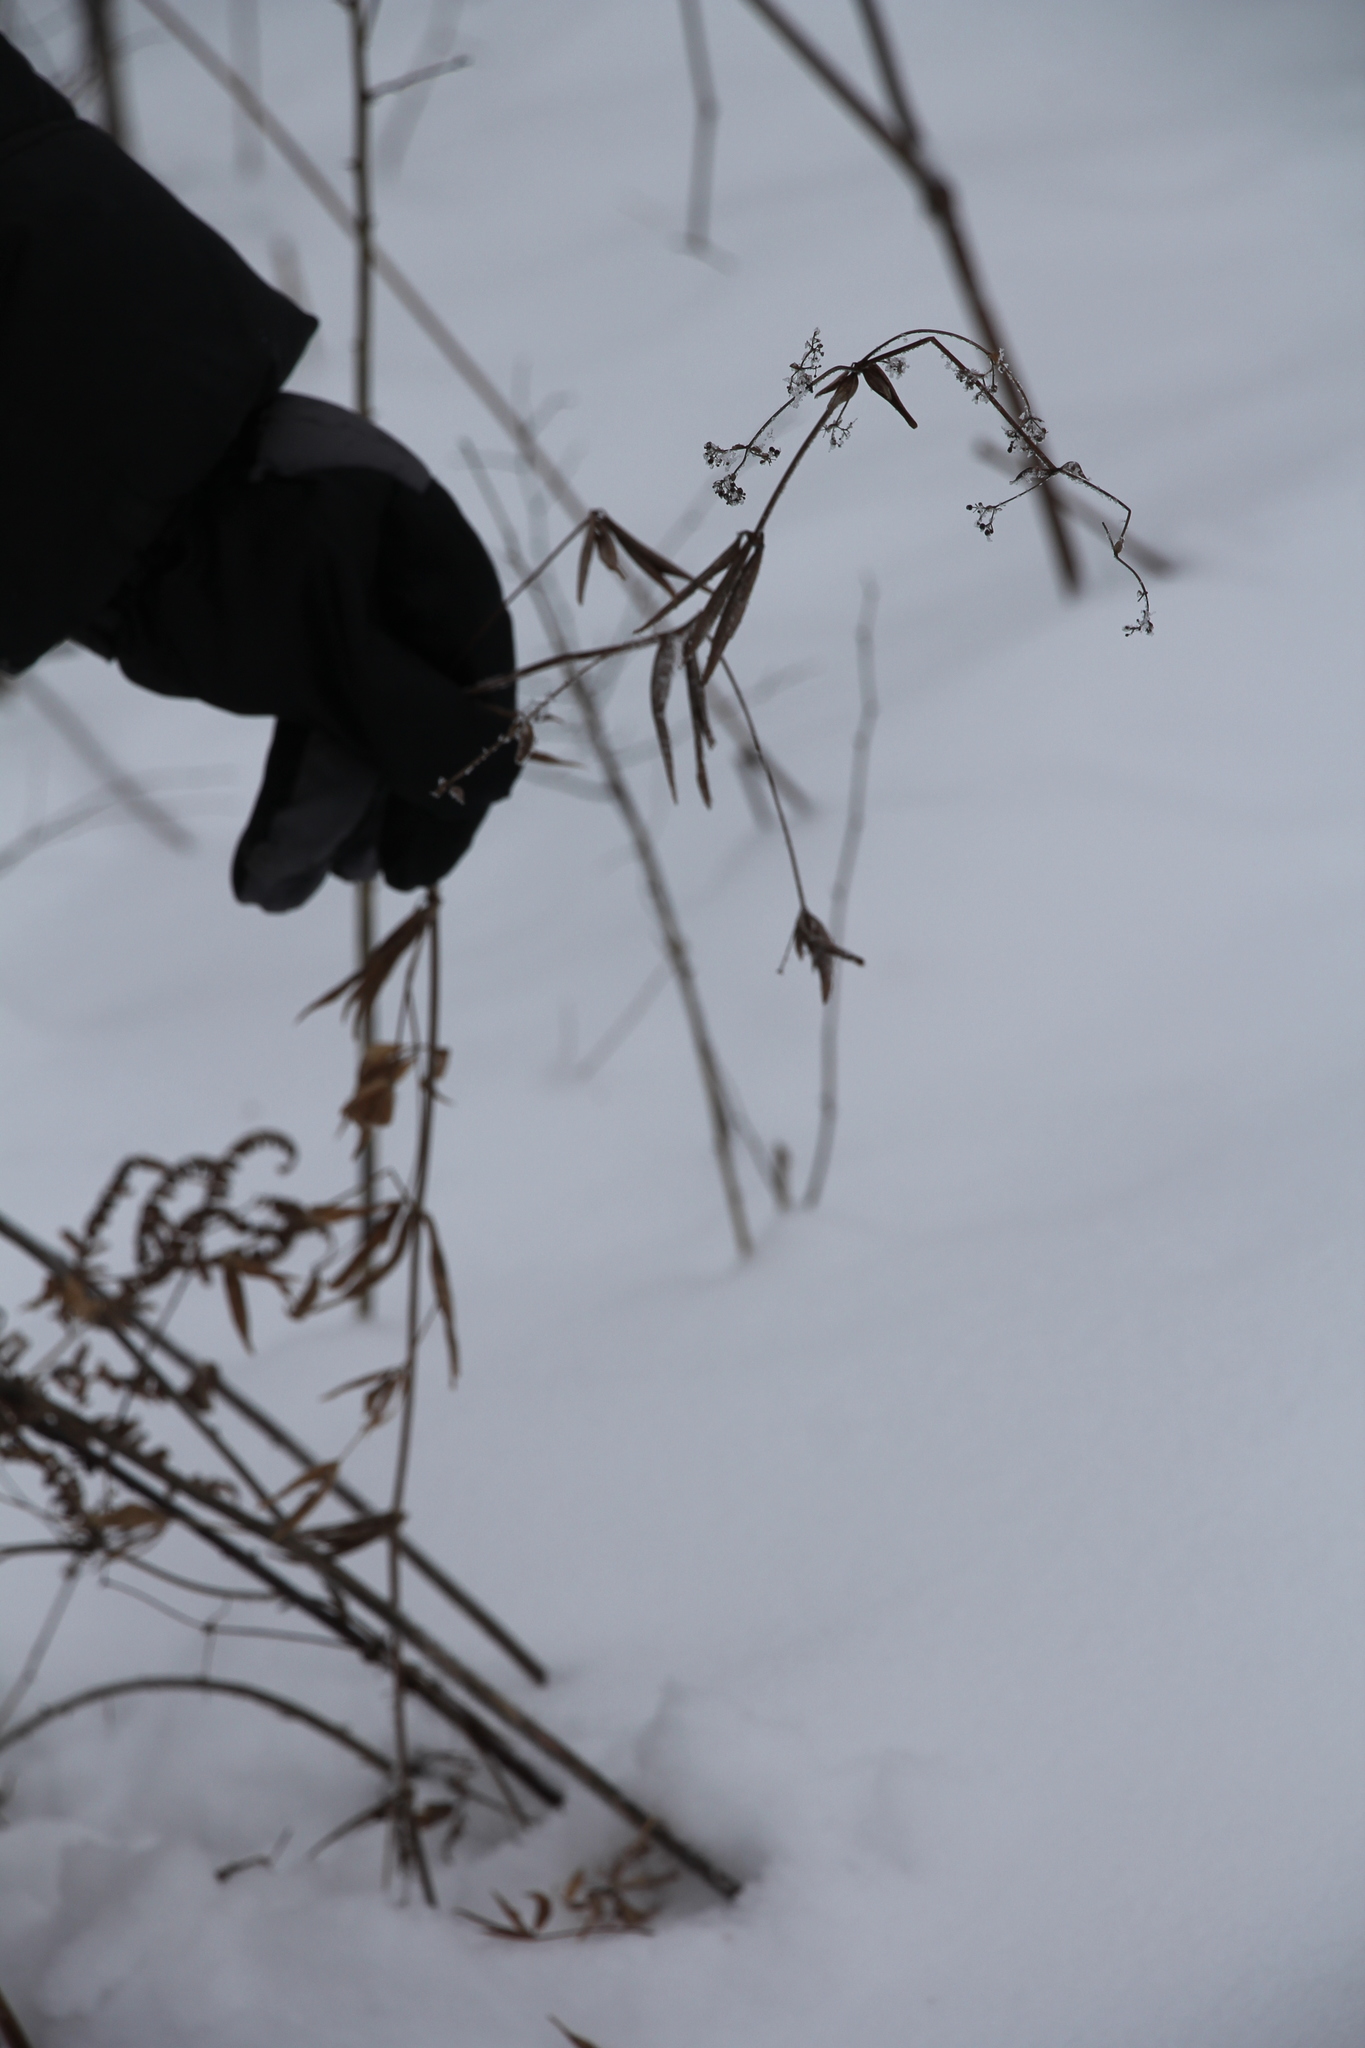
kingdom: Plantae
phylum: Tracheophyta
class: Magnoliopsida
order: Gentianales
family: Rubiaceae
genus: Galium
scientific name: Galium boreale
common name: Northern bedstraw
